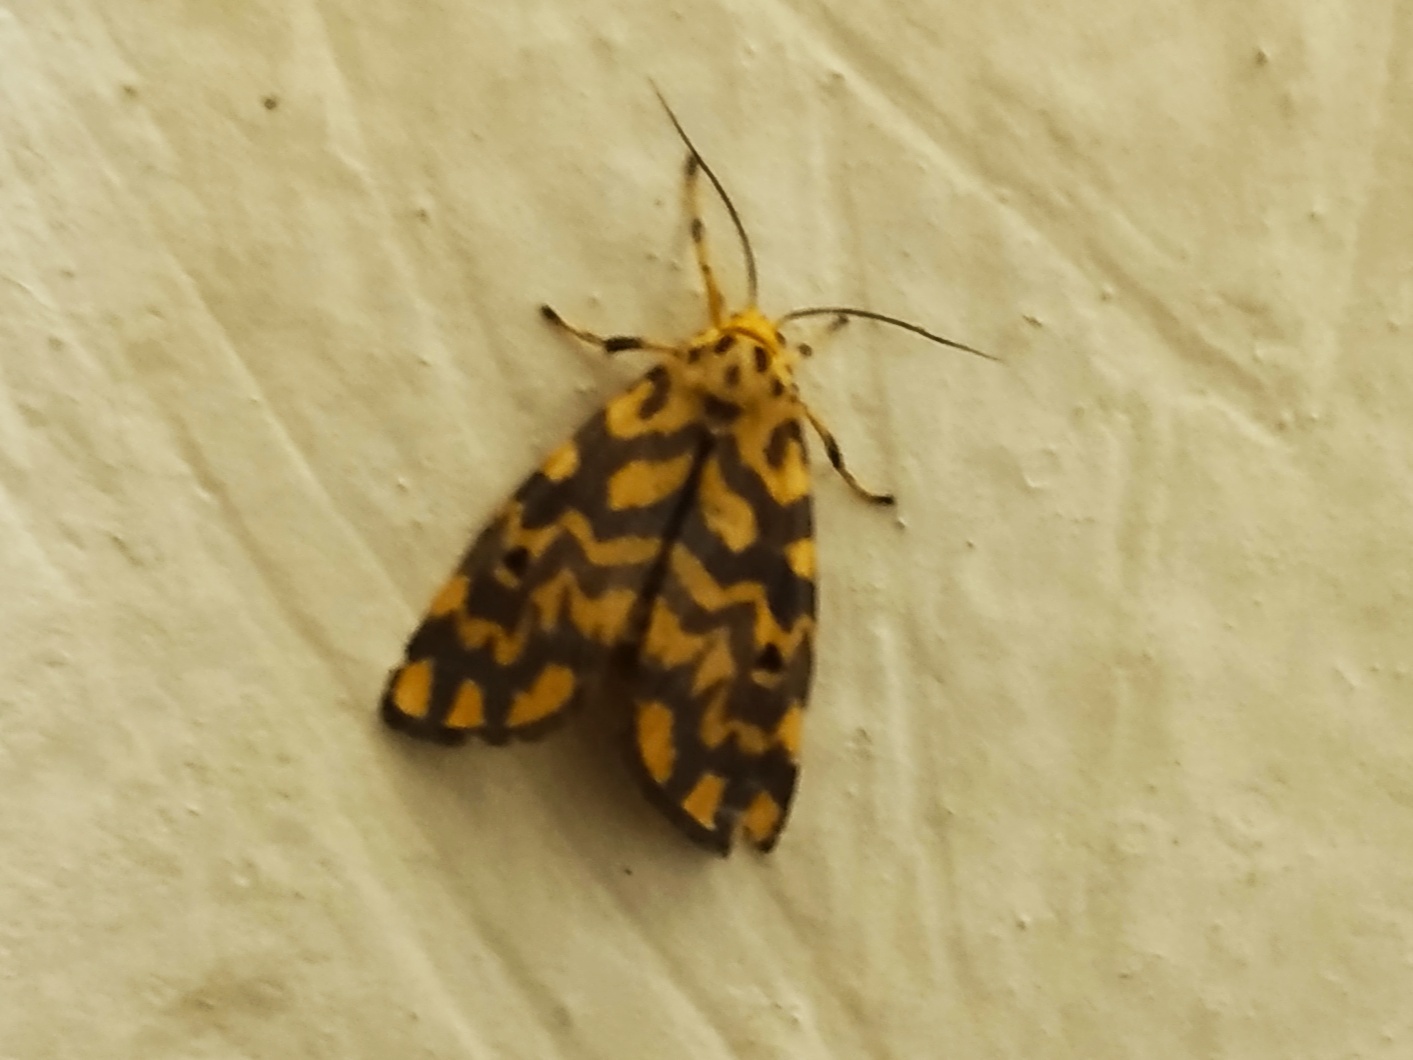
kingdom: Animalia
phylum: Arthropoda
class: Insecta
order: Lepidoptera
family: Erebidae
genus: Nepita
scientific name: Nepita conferta
